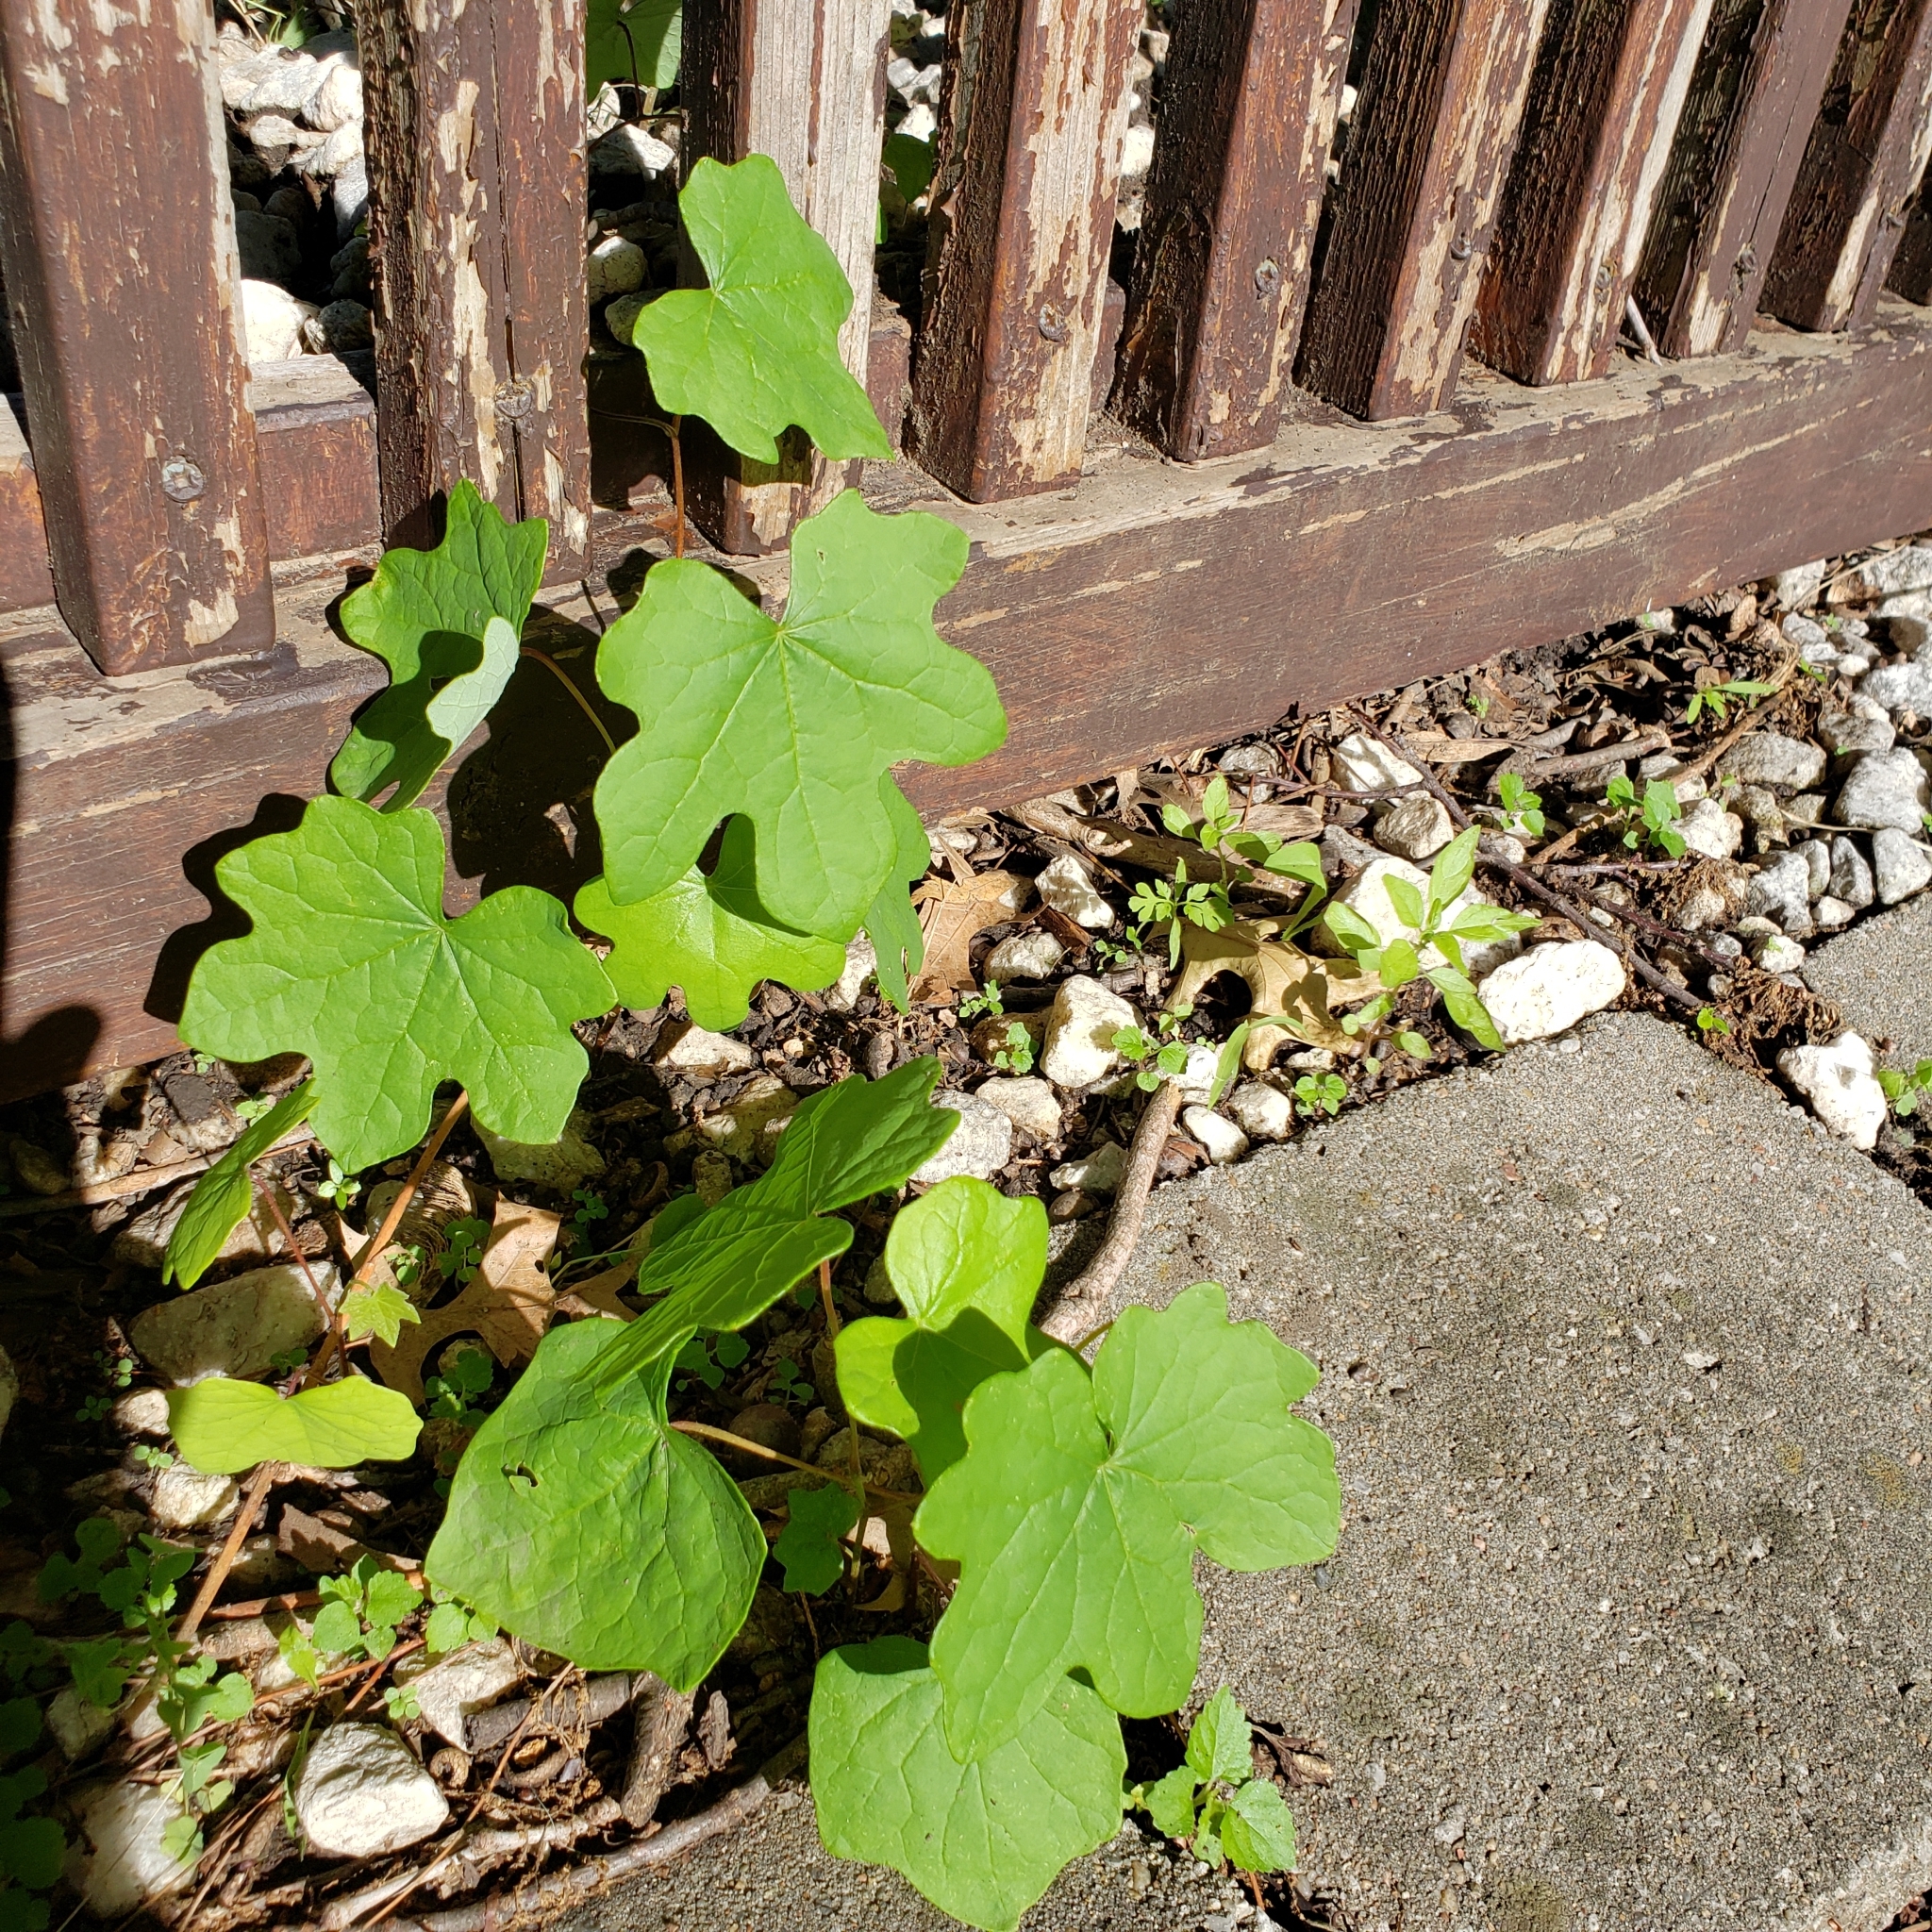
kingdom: Plantae
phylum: Tracheophyta
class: Magnoliopsida
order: Ranunculales
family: Menispermaceae
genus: Menispermum
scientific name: Menispermum canadense
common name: Moonseed
